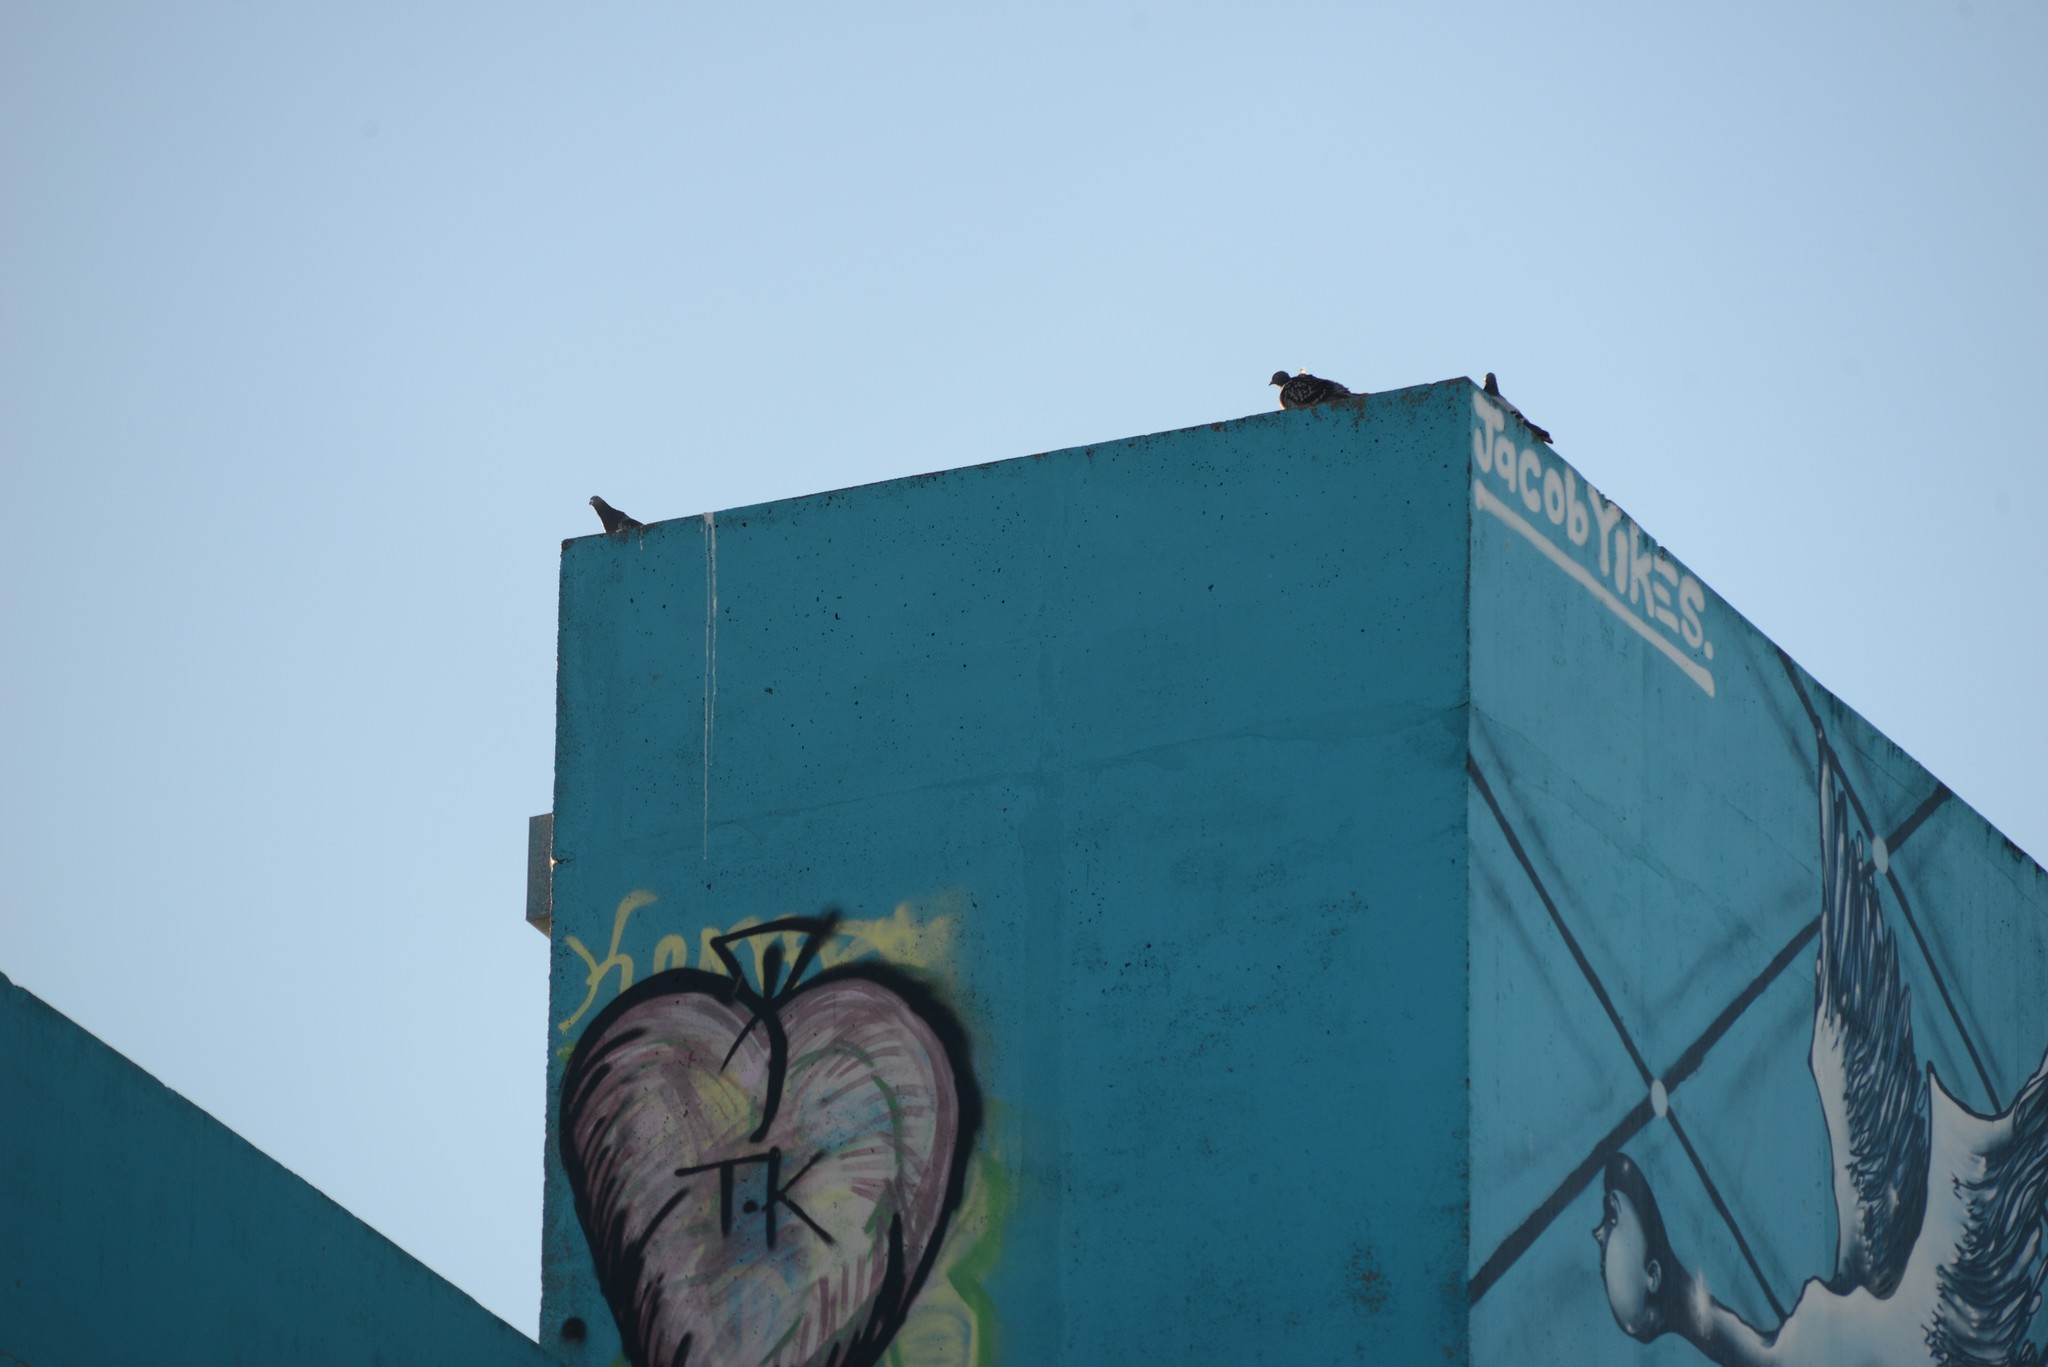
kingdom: Animalia
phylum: Chordata
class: Aves
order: Columbiformes
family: Columbidae
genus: Columba
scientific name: Columba livia
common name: Rock pigeon
